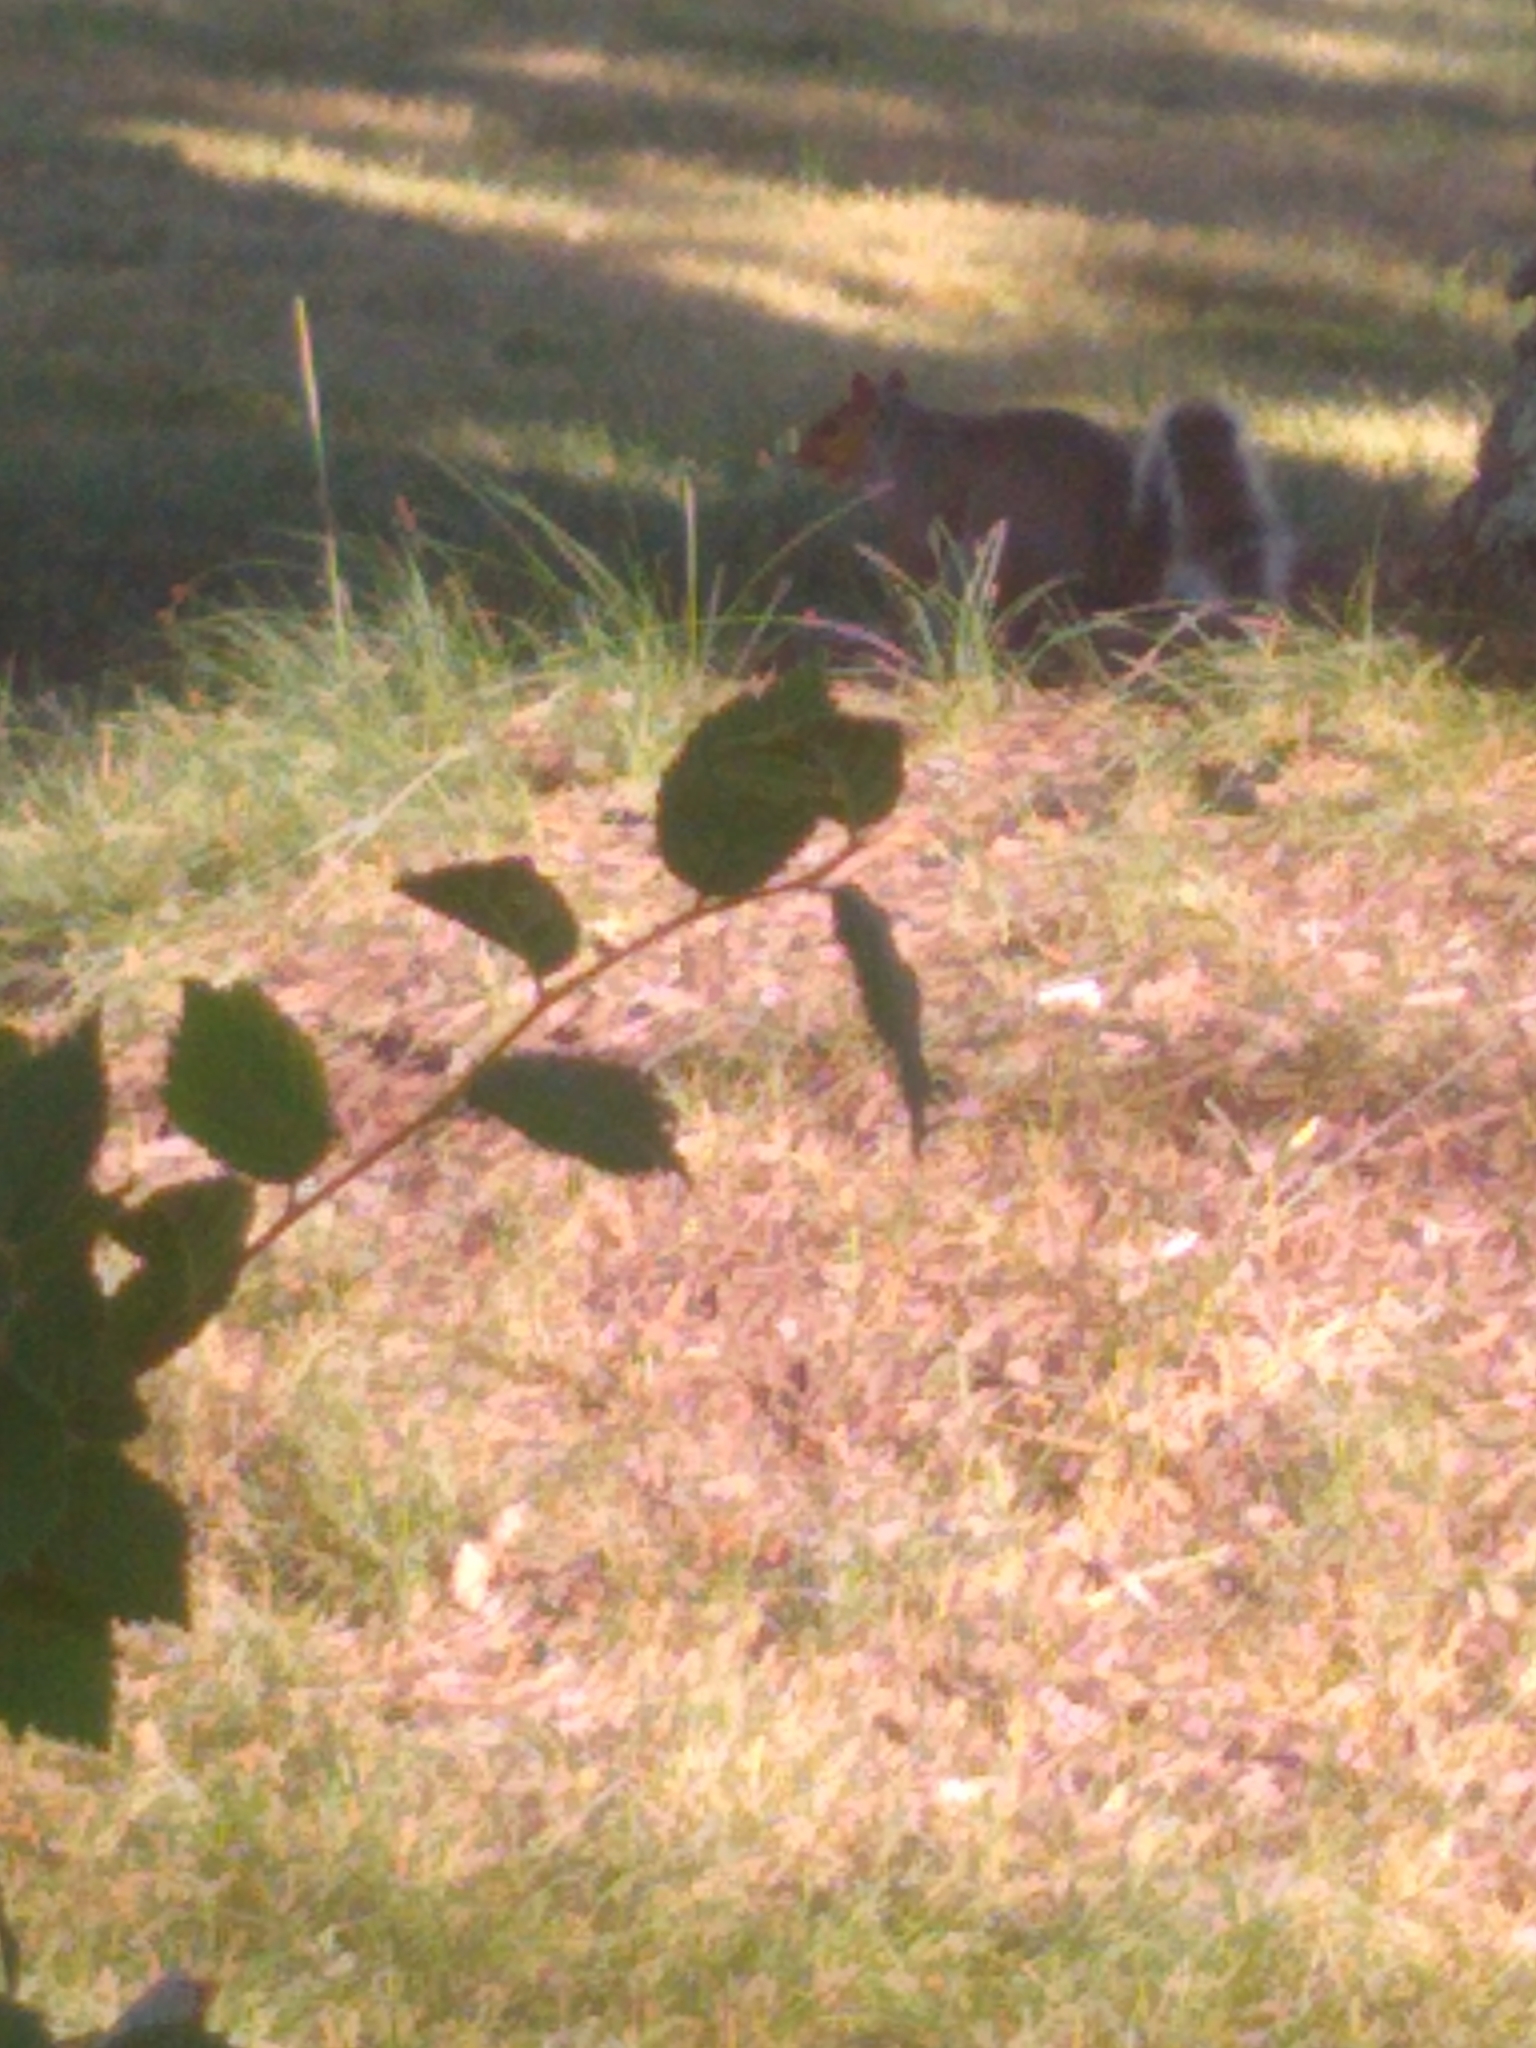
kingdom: Animalia
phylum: Chordata
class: Mammalia
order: Rodentia
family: Sciuridae
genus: Sciurus
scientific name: Sciurus carolinensis
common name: Eastern gray squirrel
